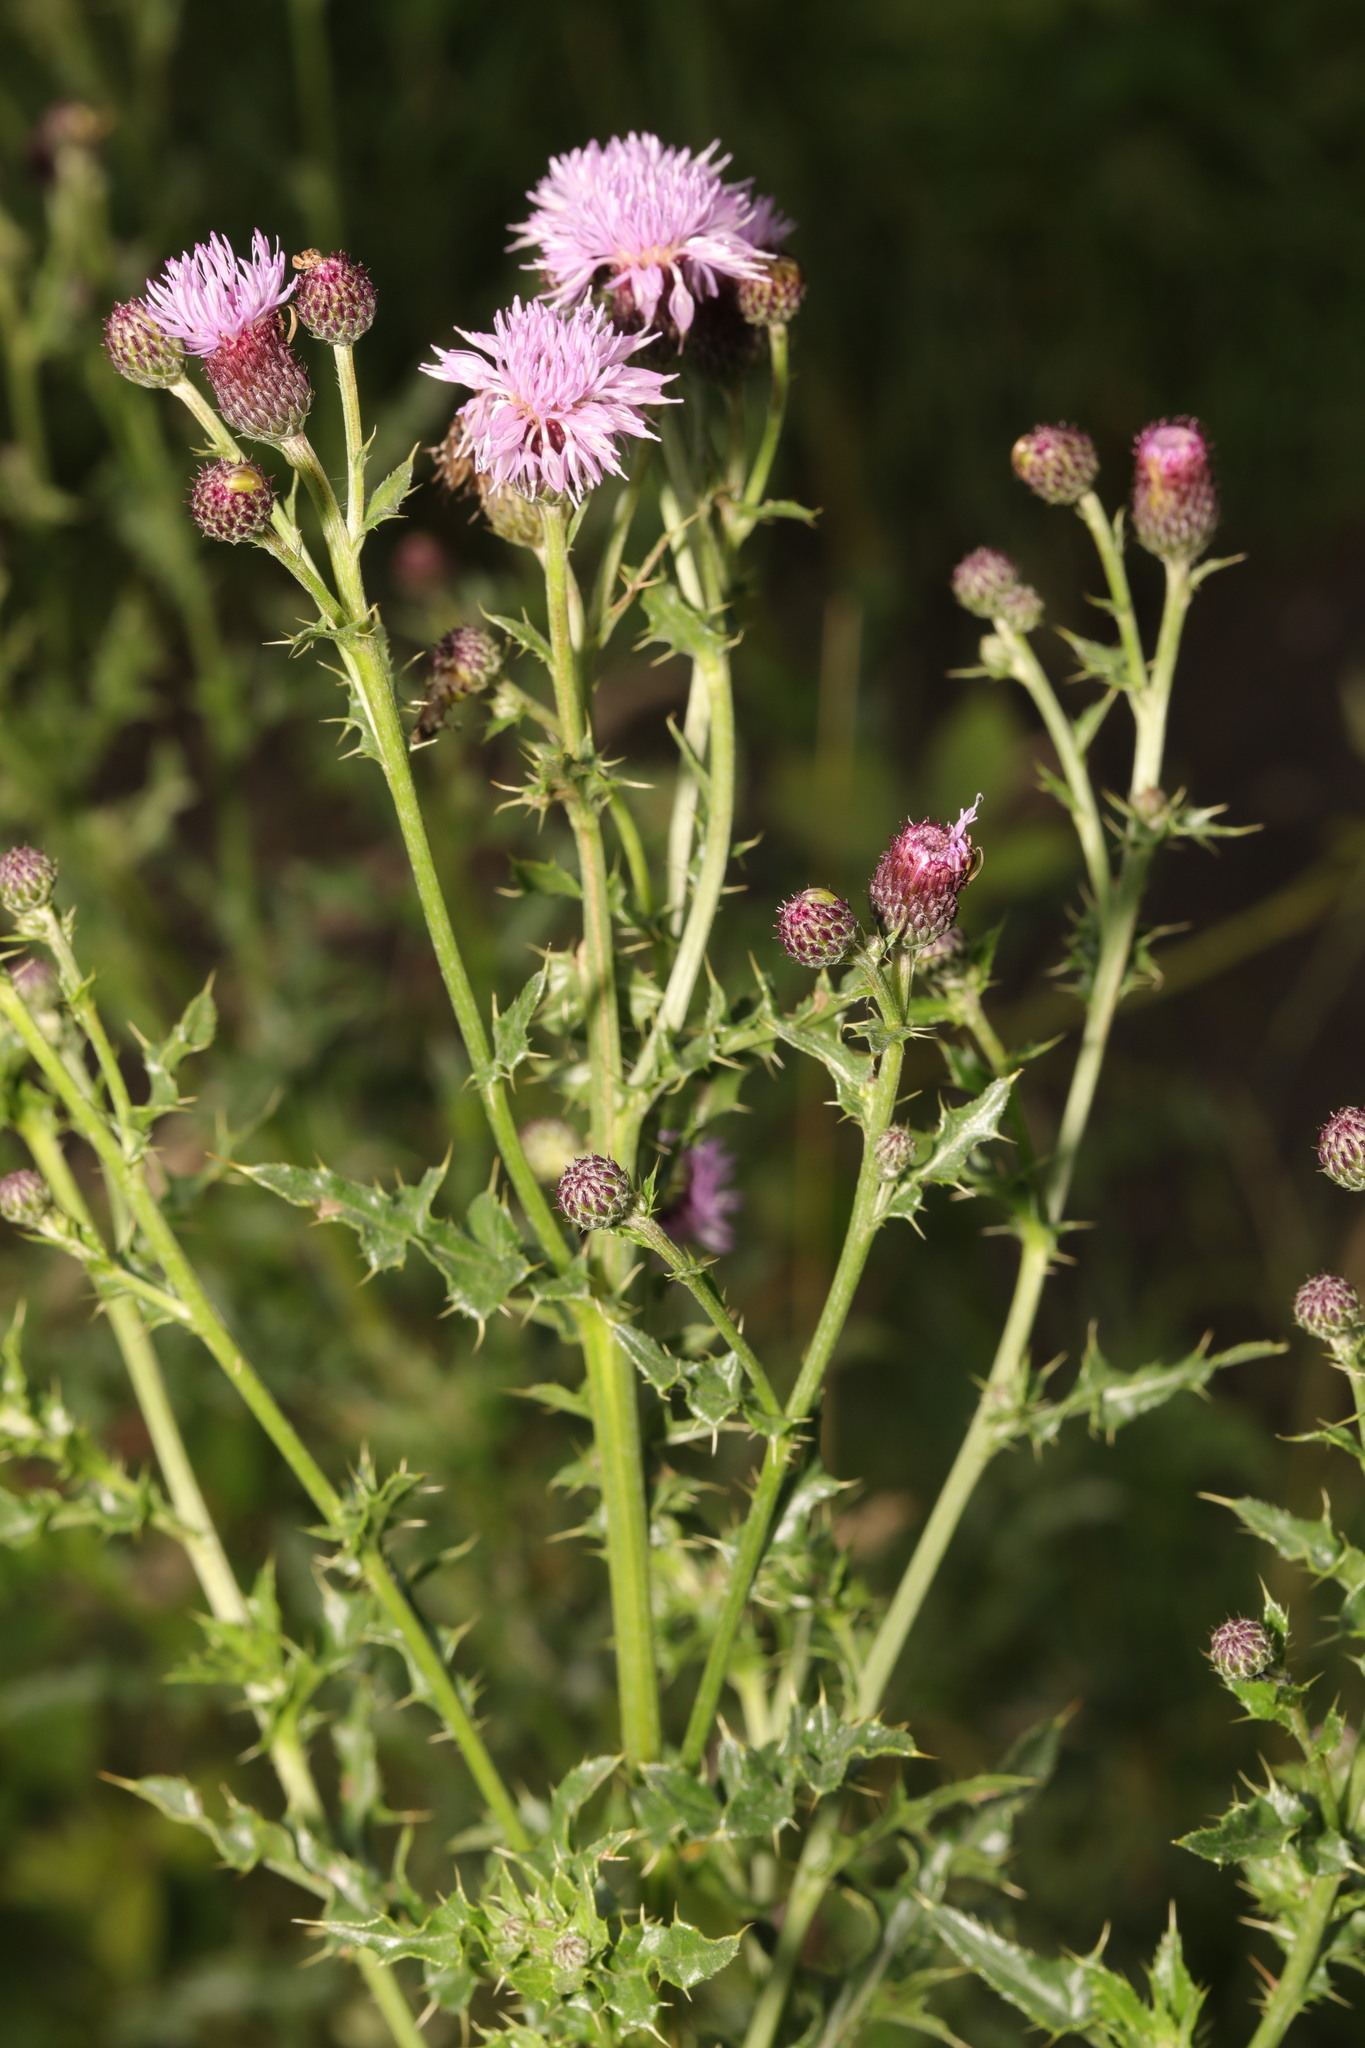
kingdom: Plantae
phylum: Tracheophyta
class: Magnoliopsida
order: Asterales
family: Asteraceae
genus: Cirsium
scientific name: Cirsium arvense
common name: Creeping thistle
